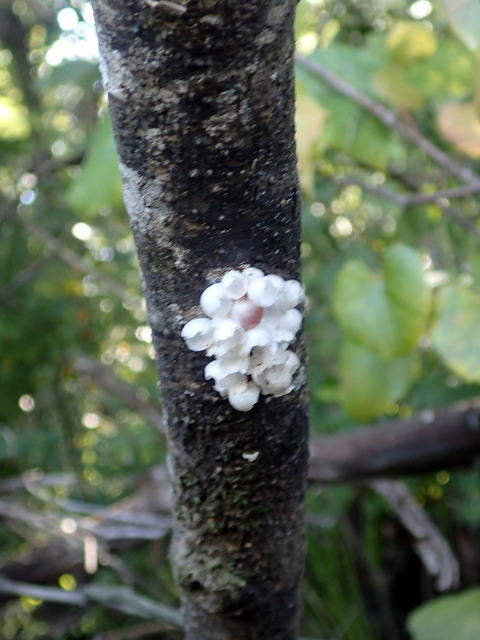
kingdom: Animalia
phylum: Mollusca
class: Gastropoda
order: Architaenioglossa
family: Ampullariidae
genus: Pomacea
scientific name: Pomacea paludosa
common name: Florida applesnail
